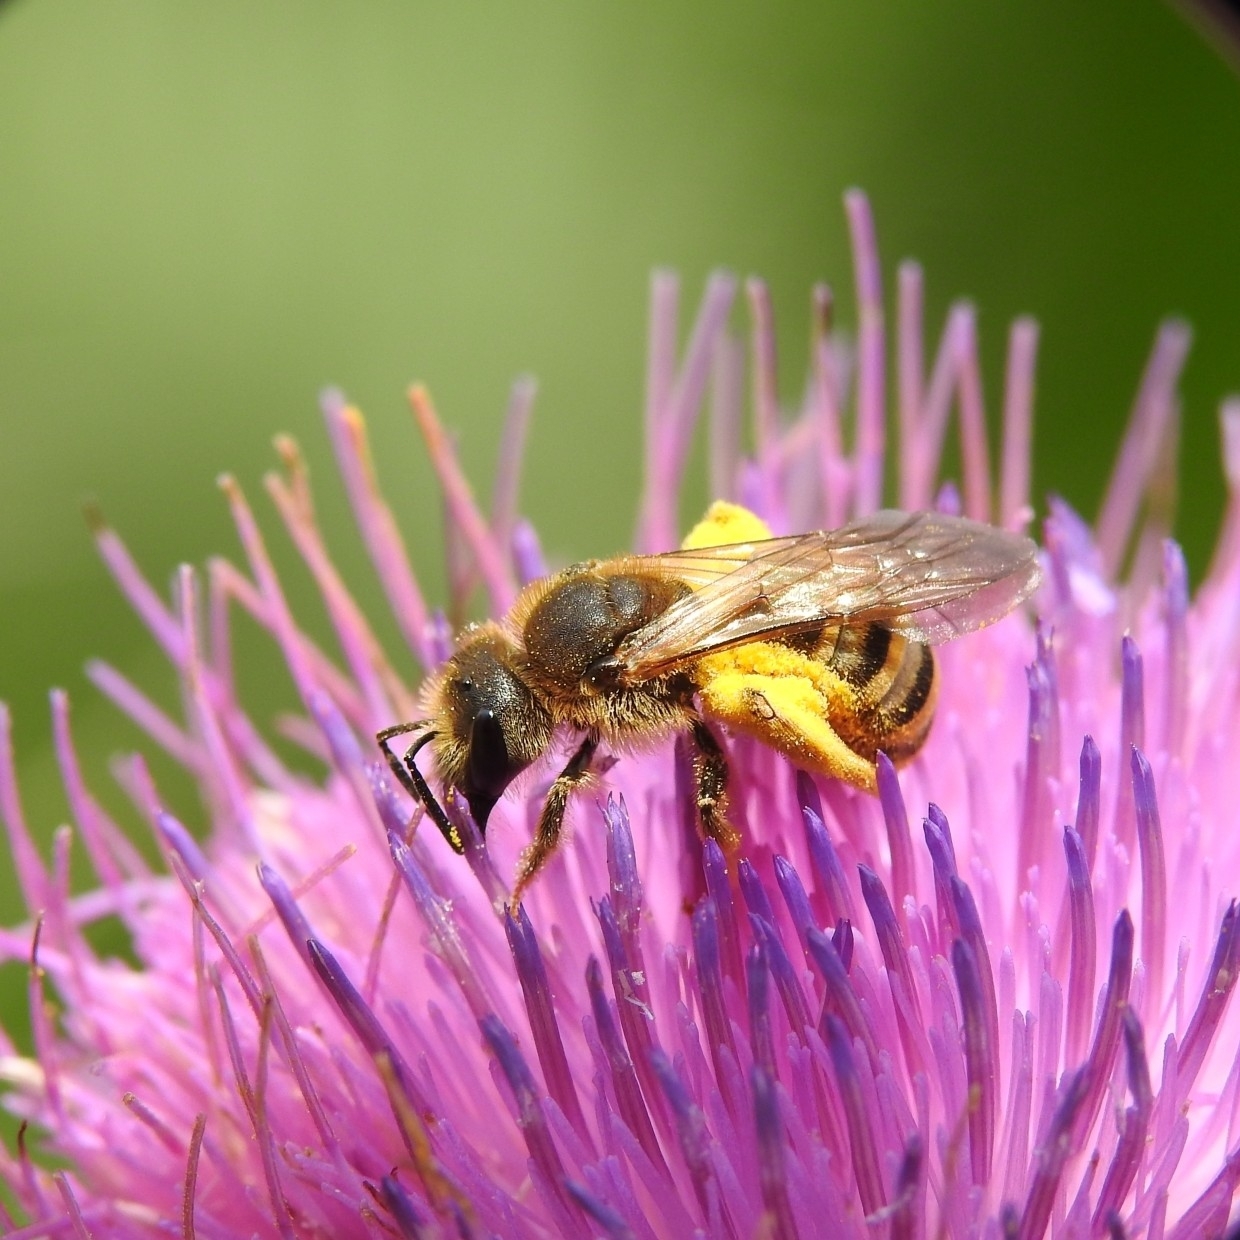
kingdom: Animalia
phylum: Arthropoda
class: Insecta
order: Hymenoptera
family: Halictidae
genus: Halictus
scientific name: Halictus scabiosae
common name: Great banded furrow bee
